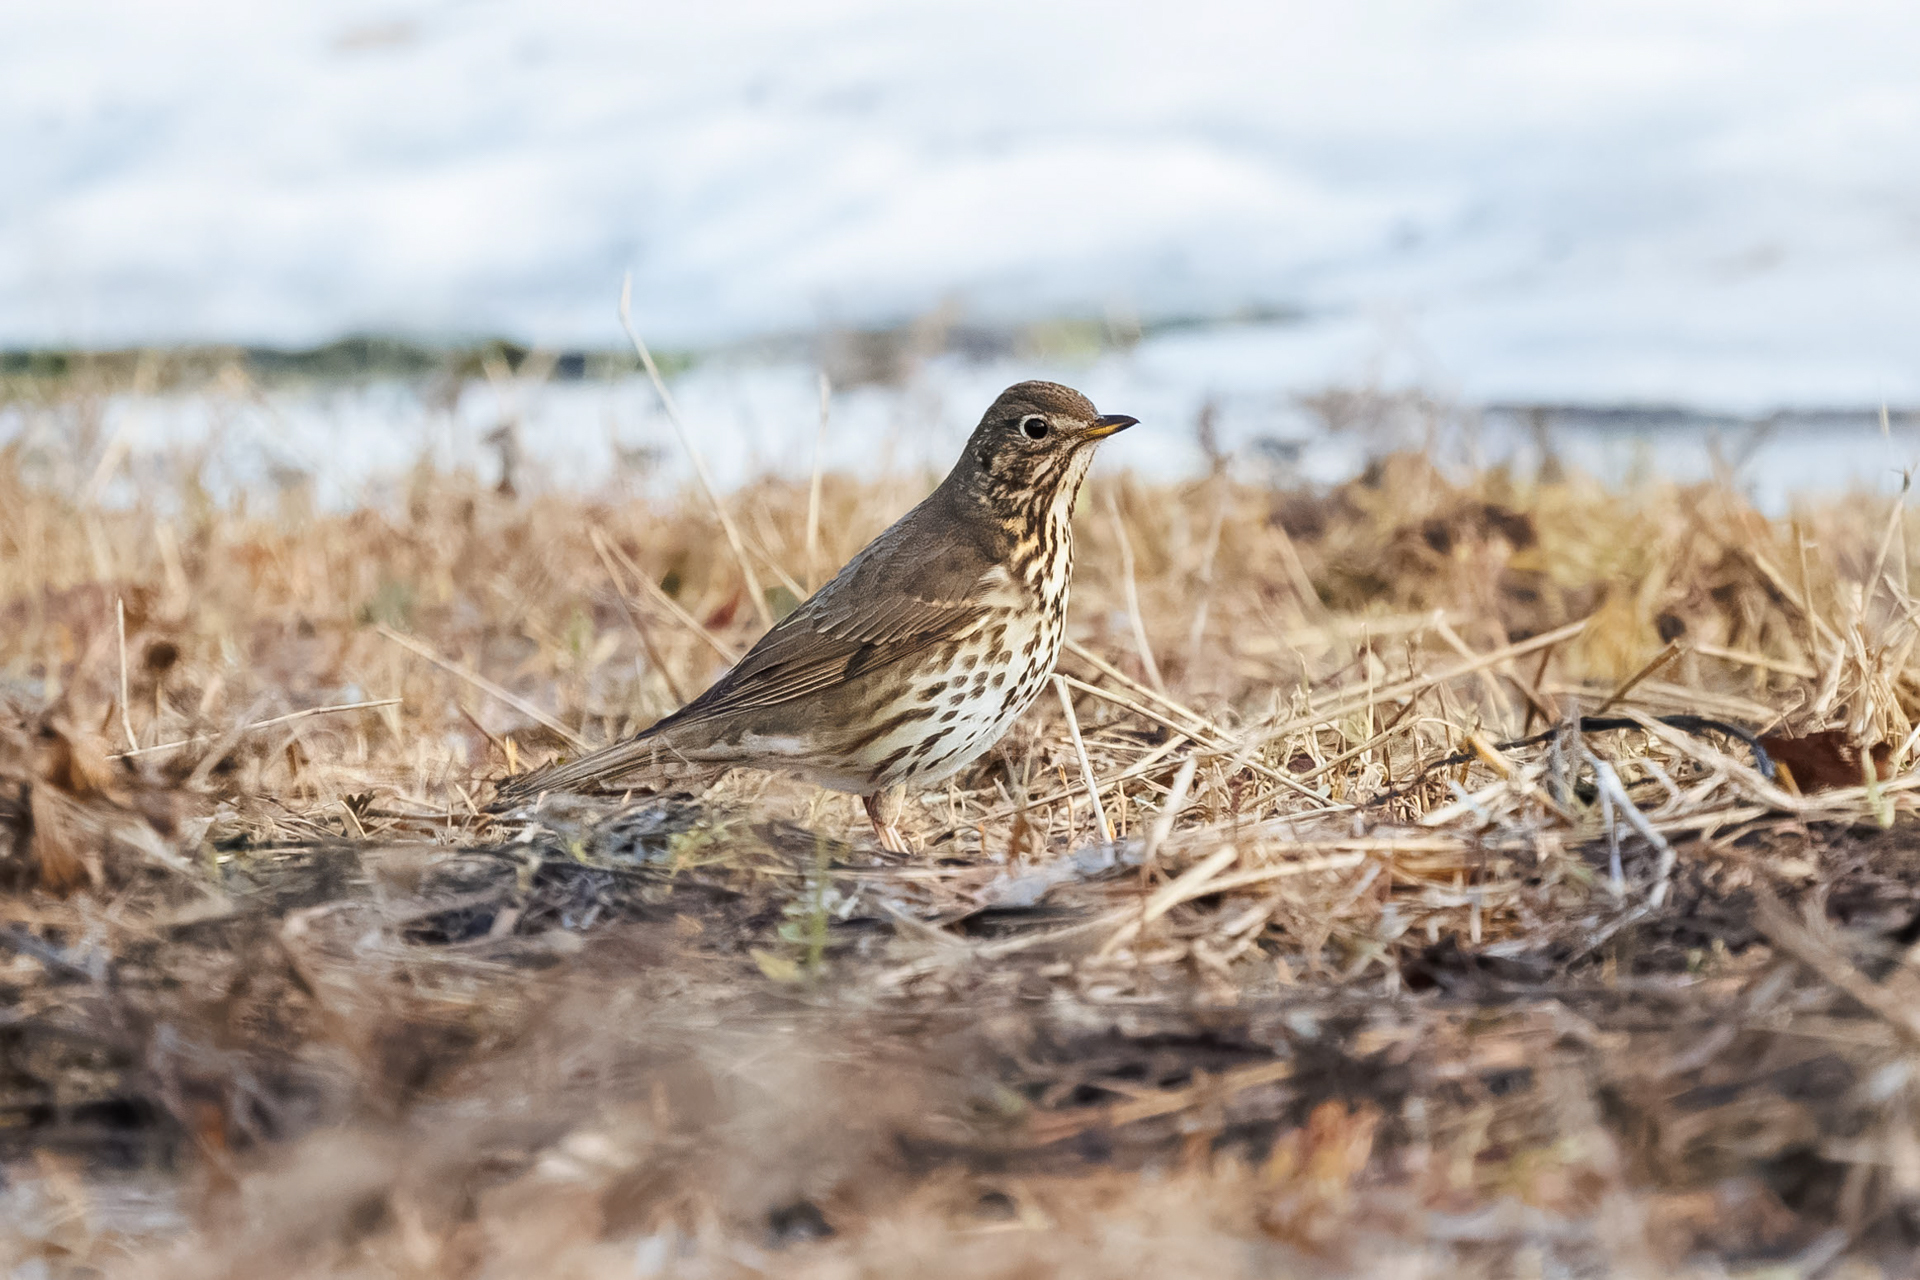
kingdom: Animalia
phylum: Chordata
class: Aves
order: Passeriformes
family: Turdidae
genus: Turdus
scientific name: Turdus philomelos
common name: Song thrush
